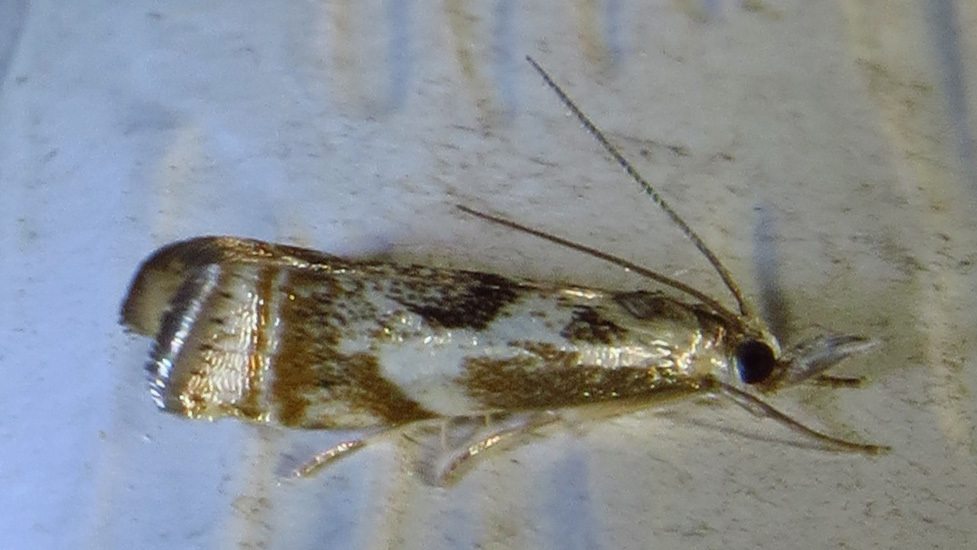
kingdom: Animalia
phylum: Arthropoda
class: Insecta
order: Lepidoptera
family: Crambidae
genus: Microcrambus
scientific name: Microcrambus elegans
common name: Elegant grass-veneer
